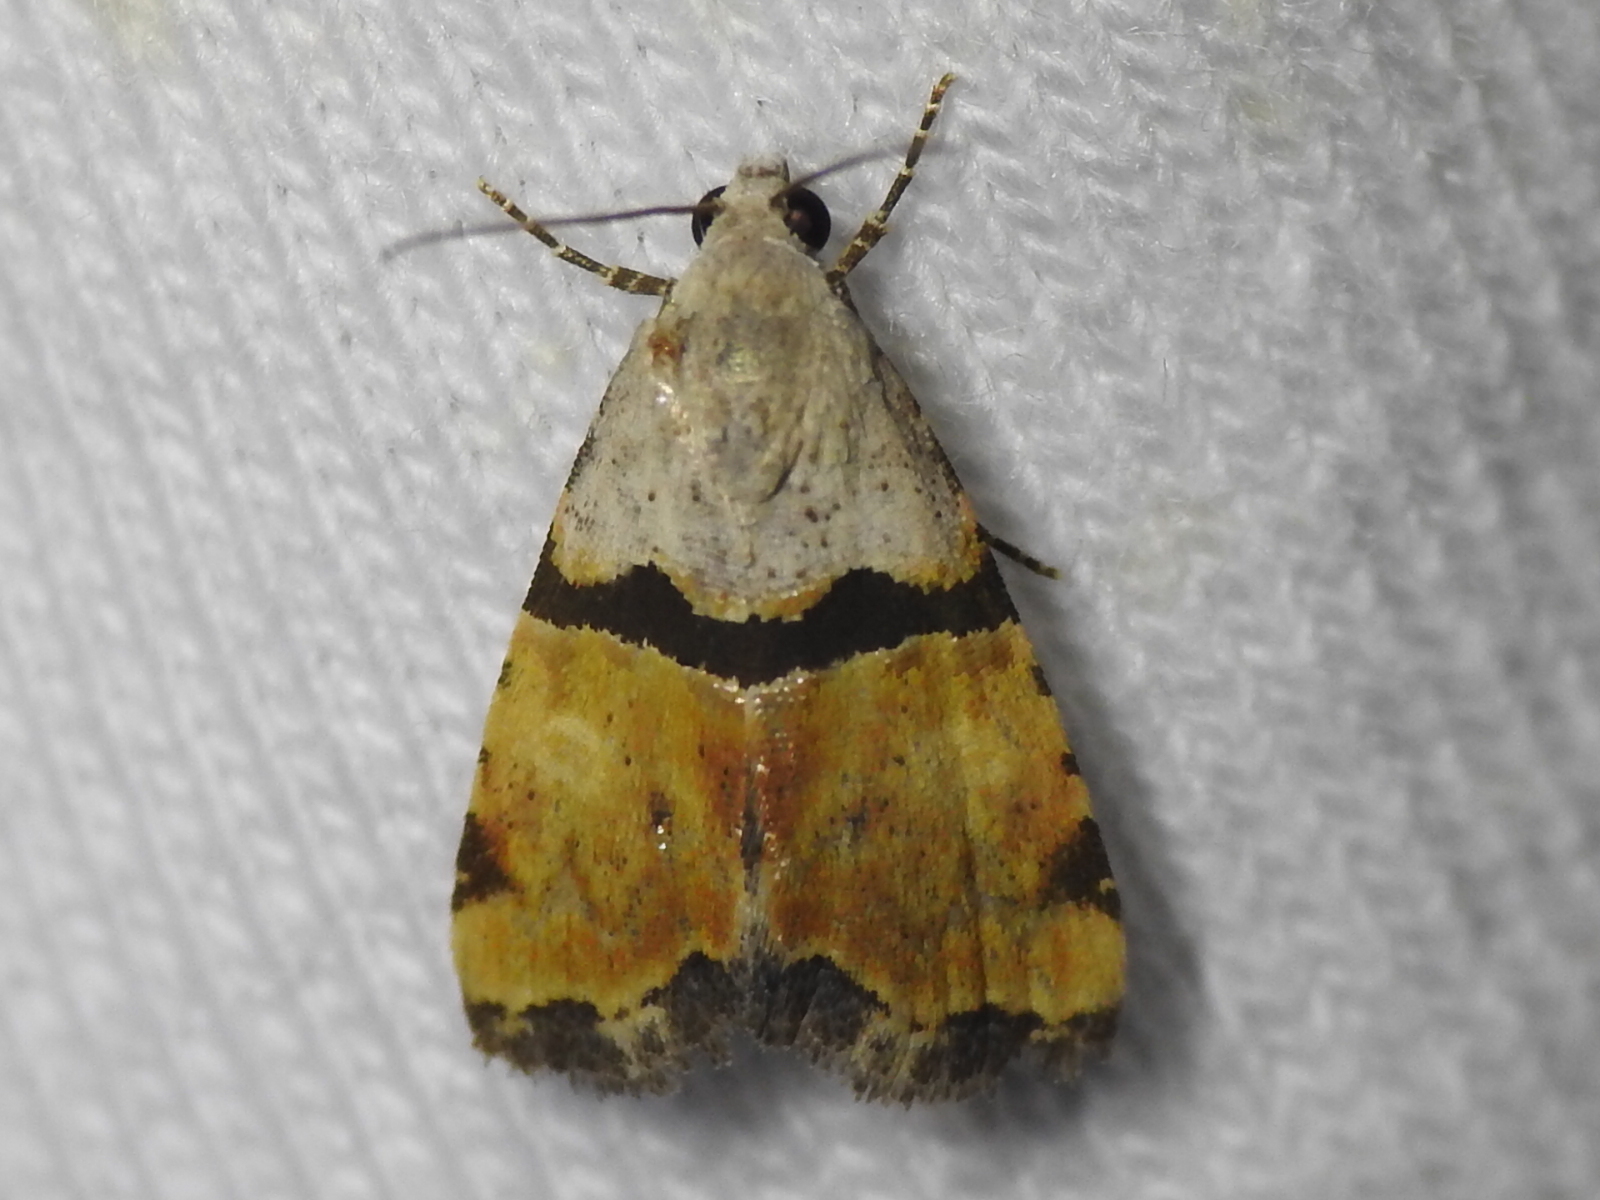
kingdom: Animalia
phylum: Arthropoda
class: Insecta
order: Lepidoptera
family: Noctuidae
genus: Cobubatha
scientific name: Cobubatha orthozona
